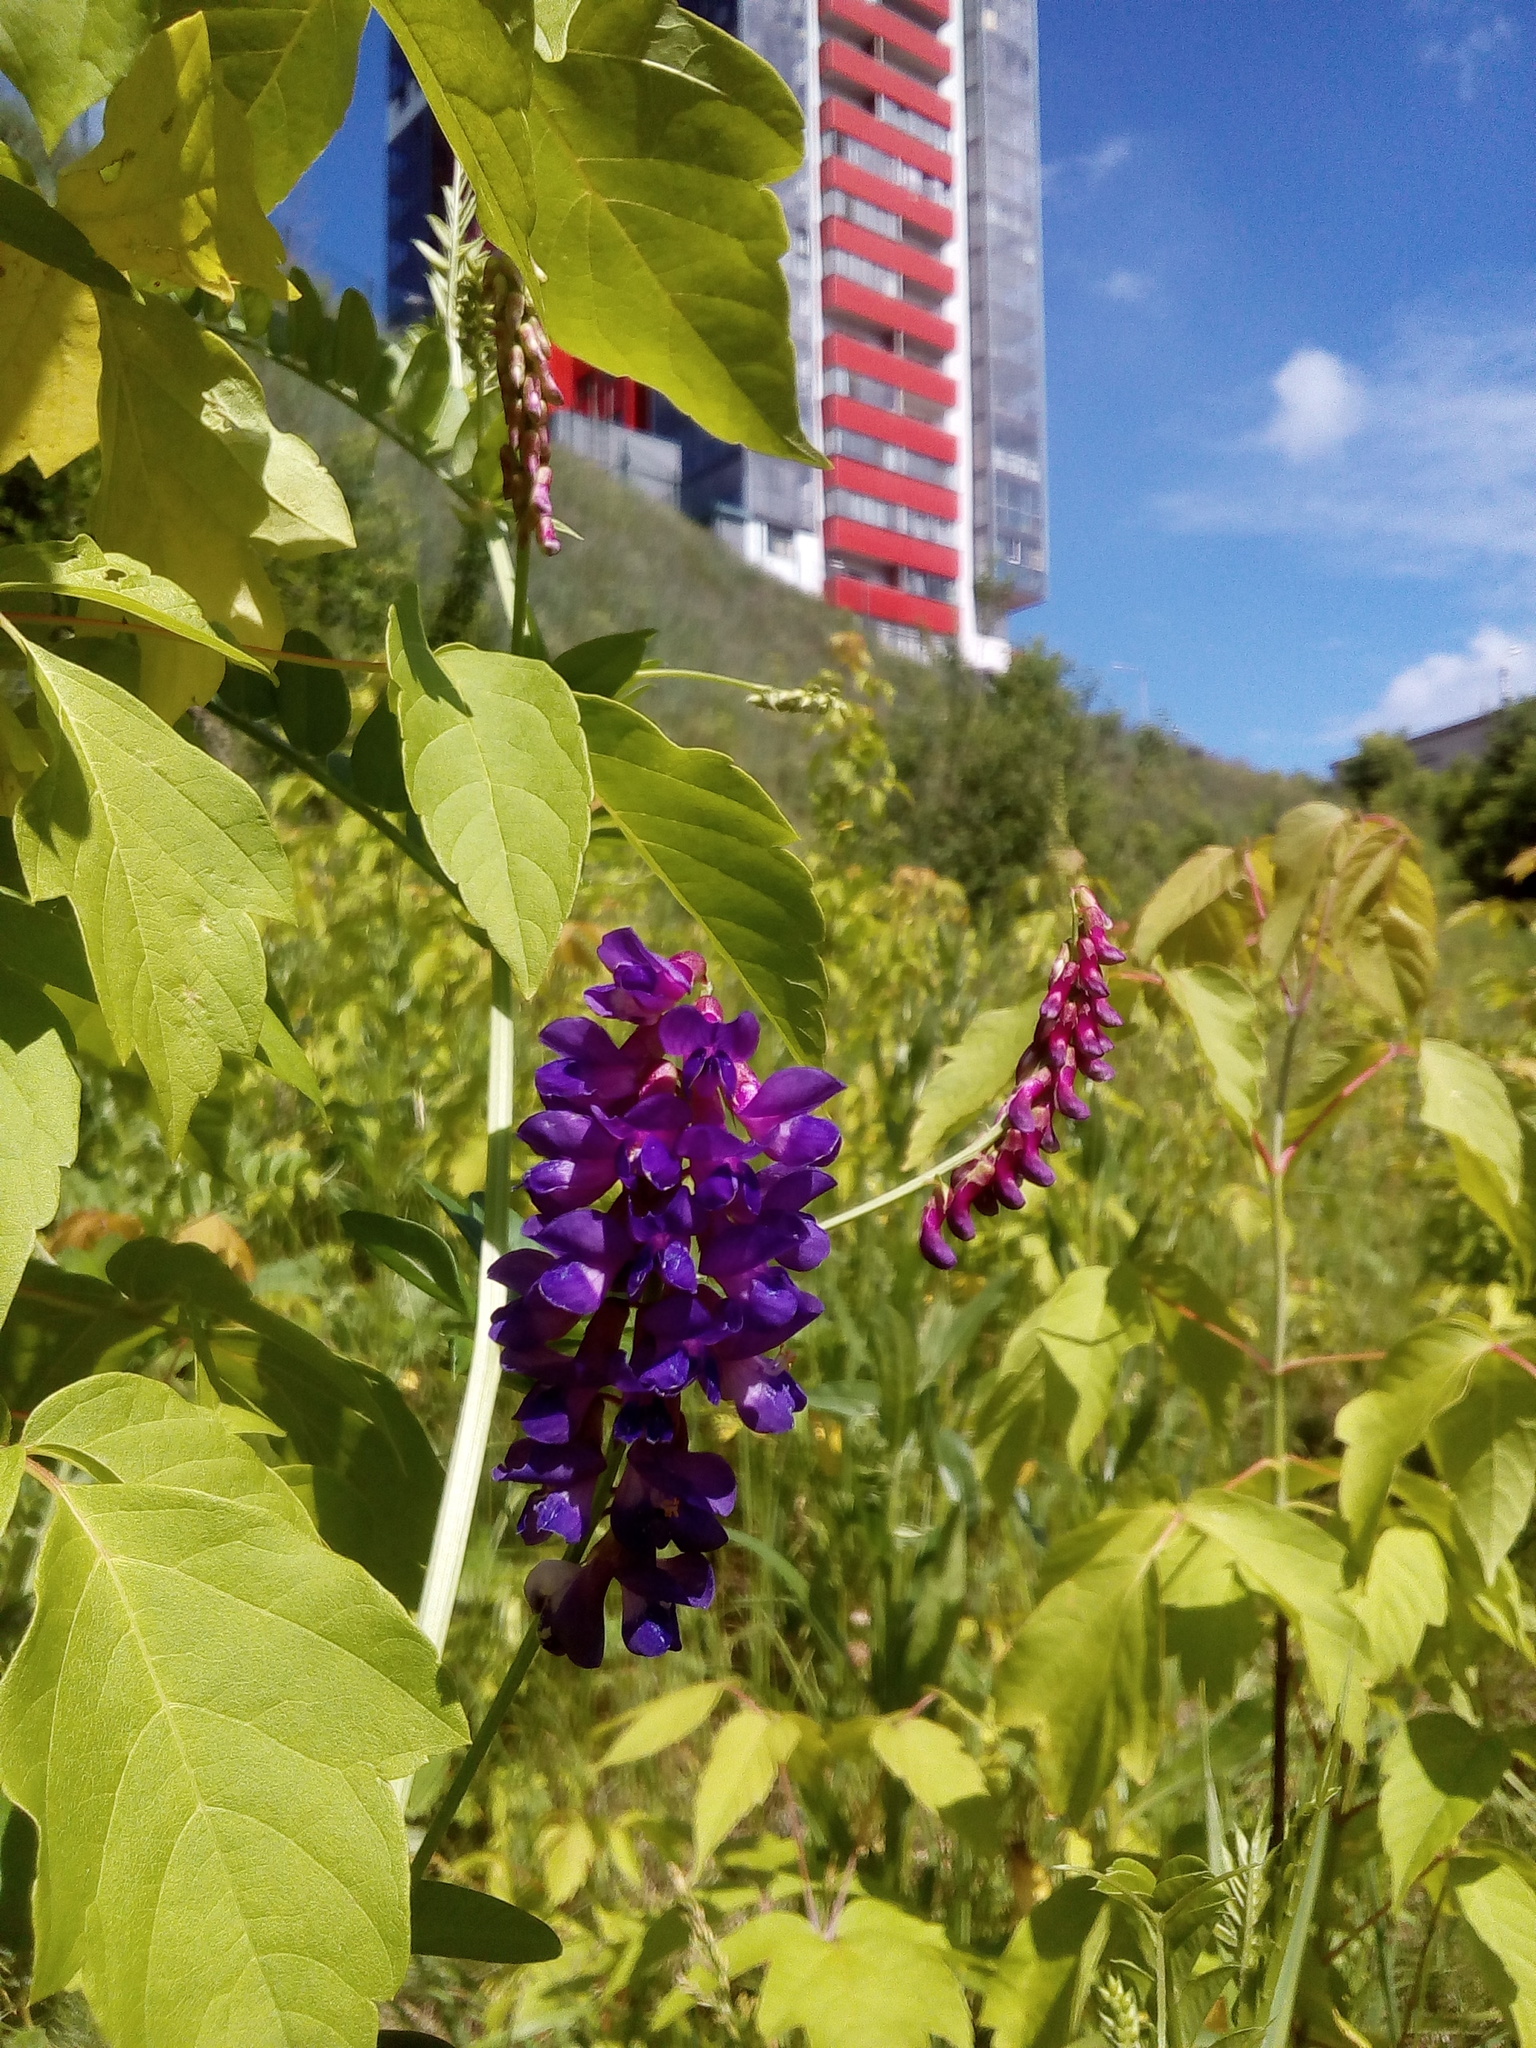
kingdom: Plantae
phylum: Tracheophyta
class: Magnoliopsida
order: Fabales
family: Fabaceae
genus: Vicia
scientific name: Vicia amoena
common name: Cheder ebs
